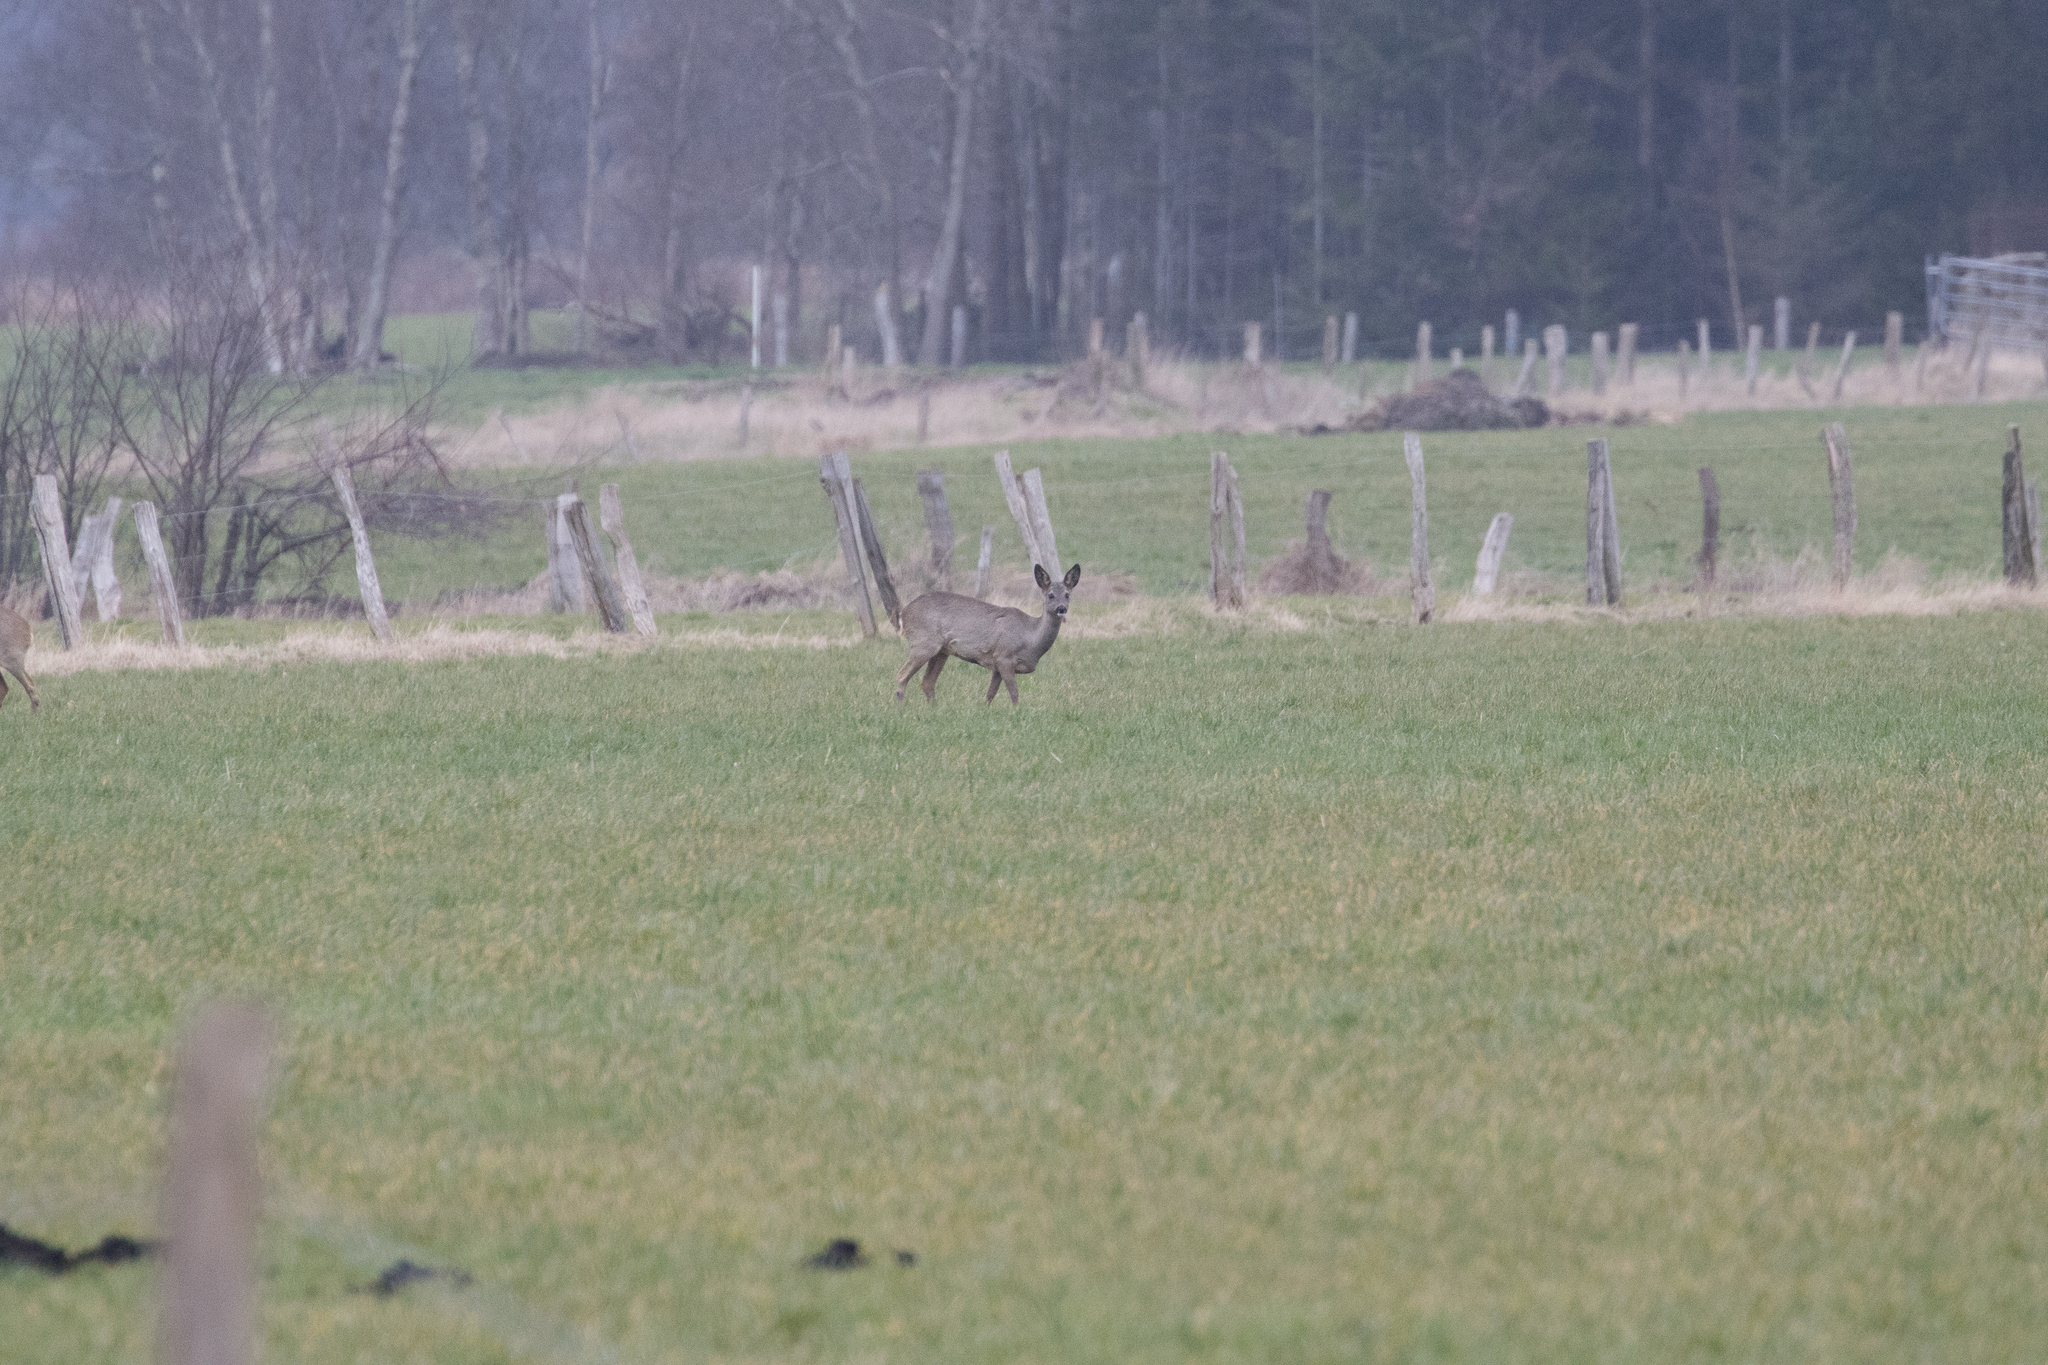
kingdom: Animalia
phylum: Chordata
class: Mammalia
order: Artiodactyla
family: Cervidae
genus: Capreolus
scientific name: Capreolus capreolus
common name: Western roe deer
